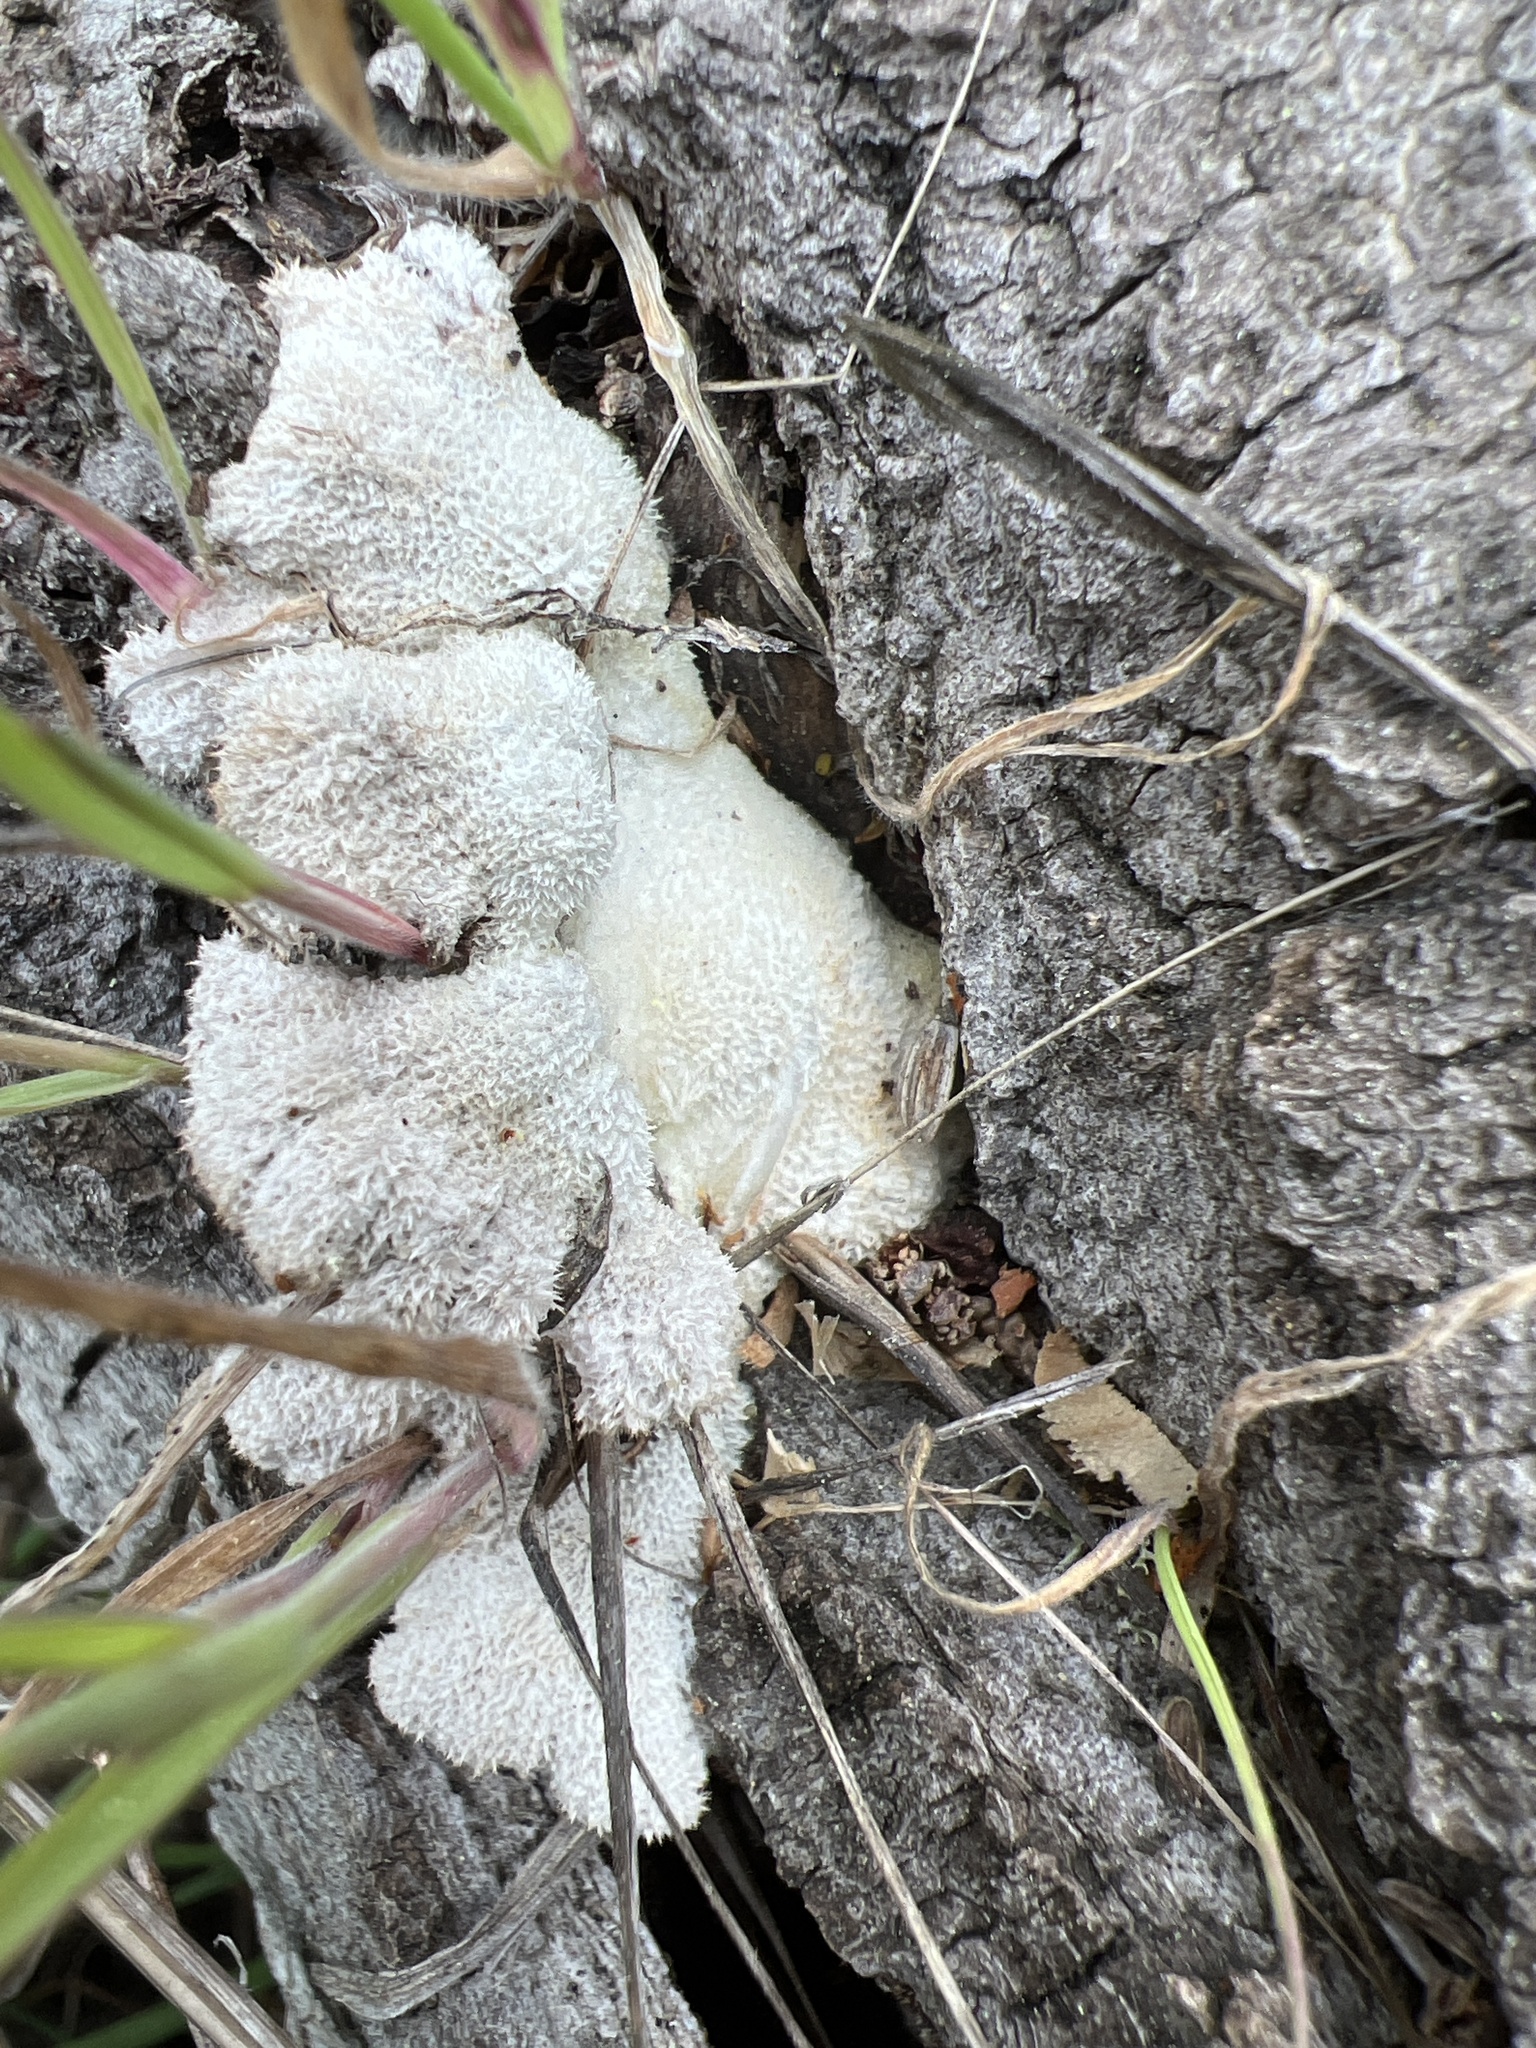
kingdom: Fungi
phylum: Basidiomycota
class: Agaricomycetes
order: Agaricales
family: Schizophyllaceae
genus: Schizophyllum
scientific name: Schizophyllum commune
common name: Common porecrust
